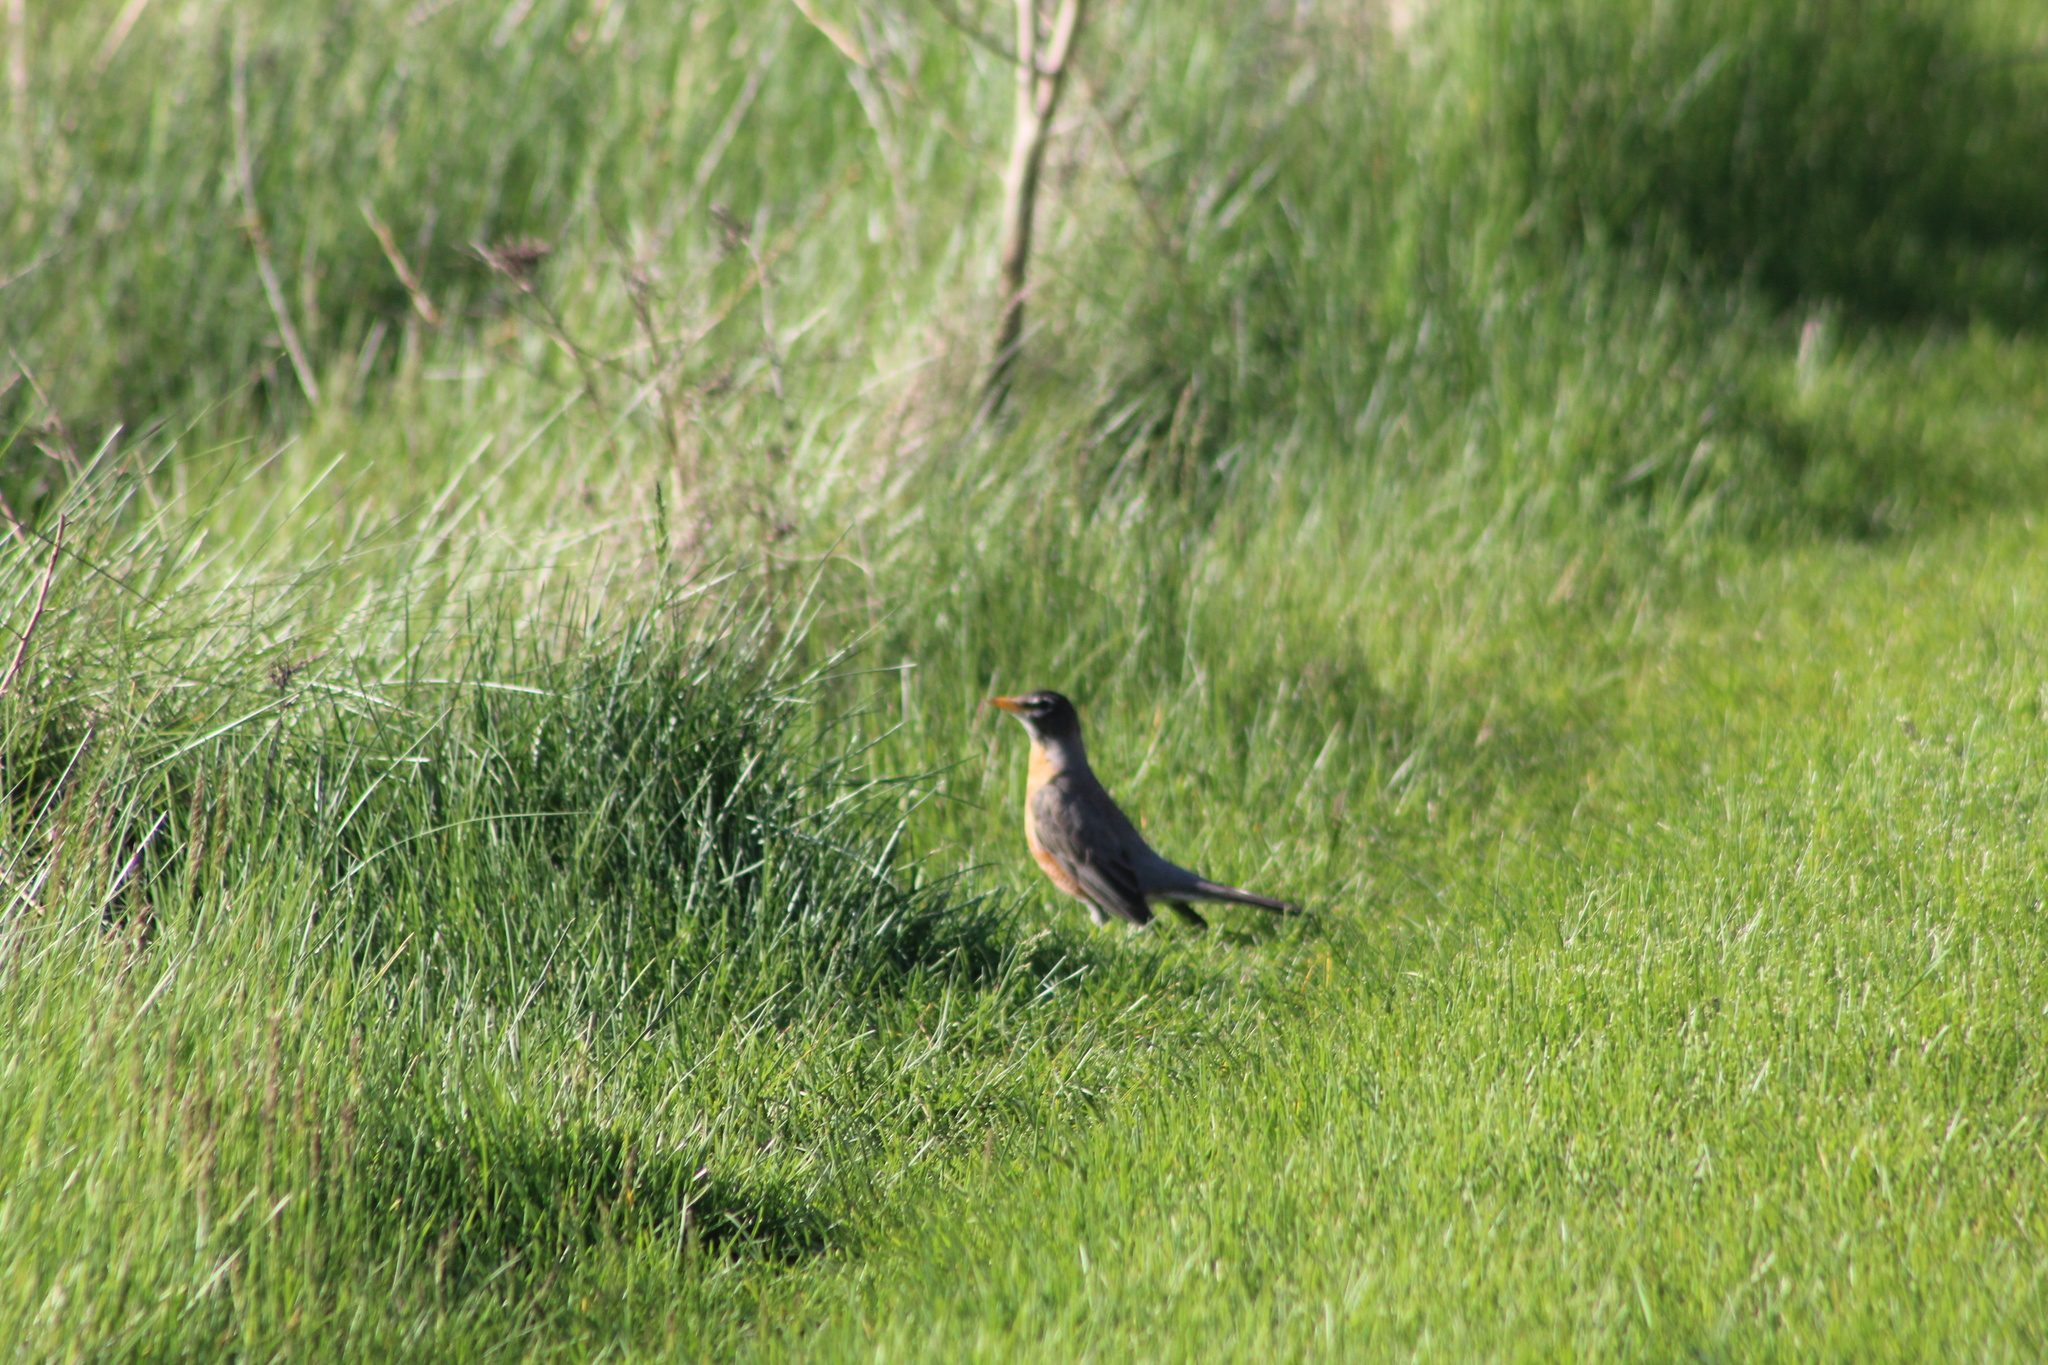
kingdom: Animalia
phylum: Chordata
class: Aves
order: Passeriformes
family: Turdidae
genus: Turdus
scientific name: Turdus migratorius
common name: American robin
